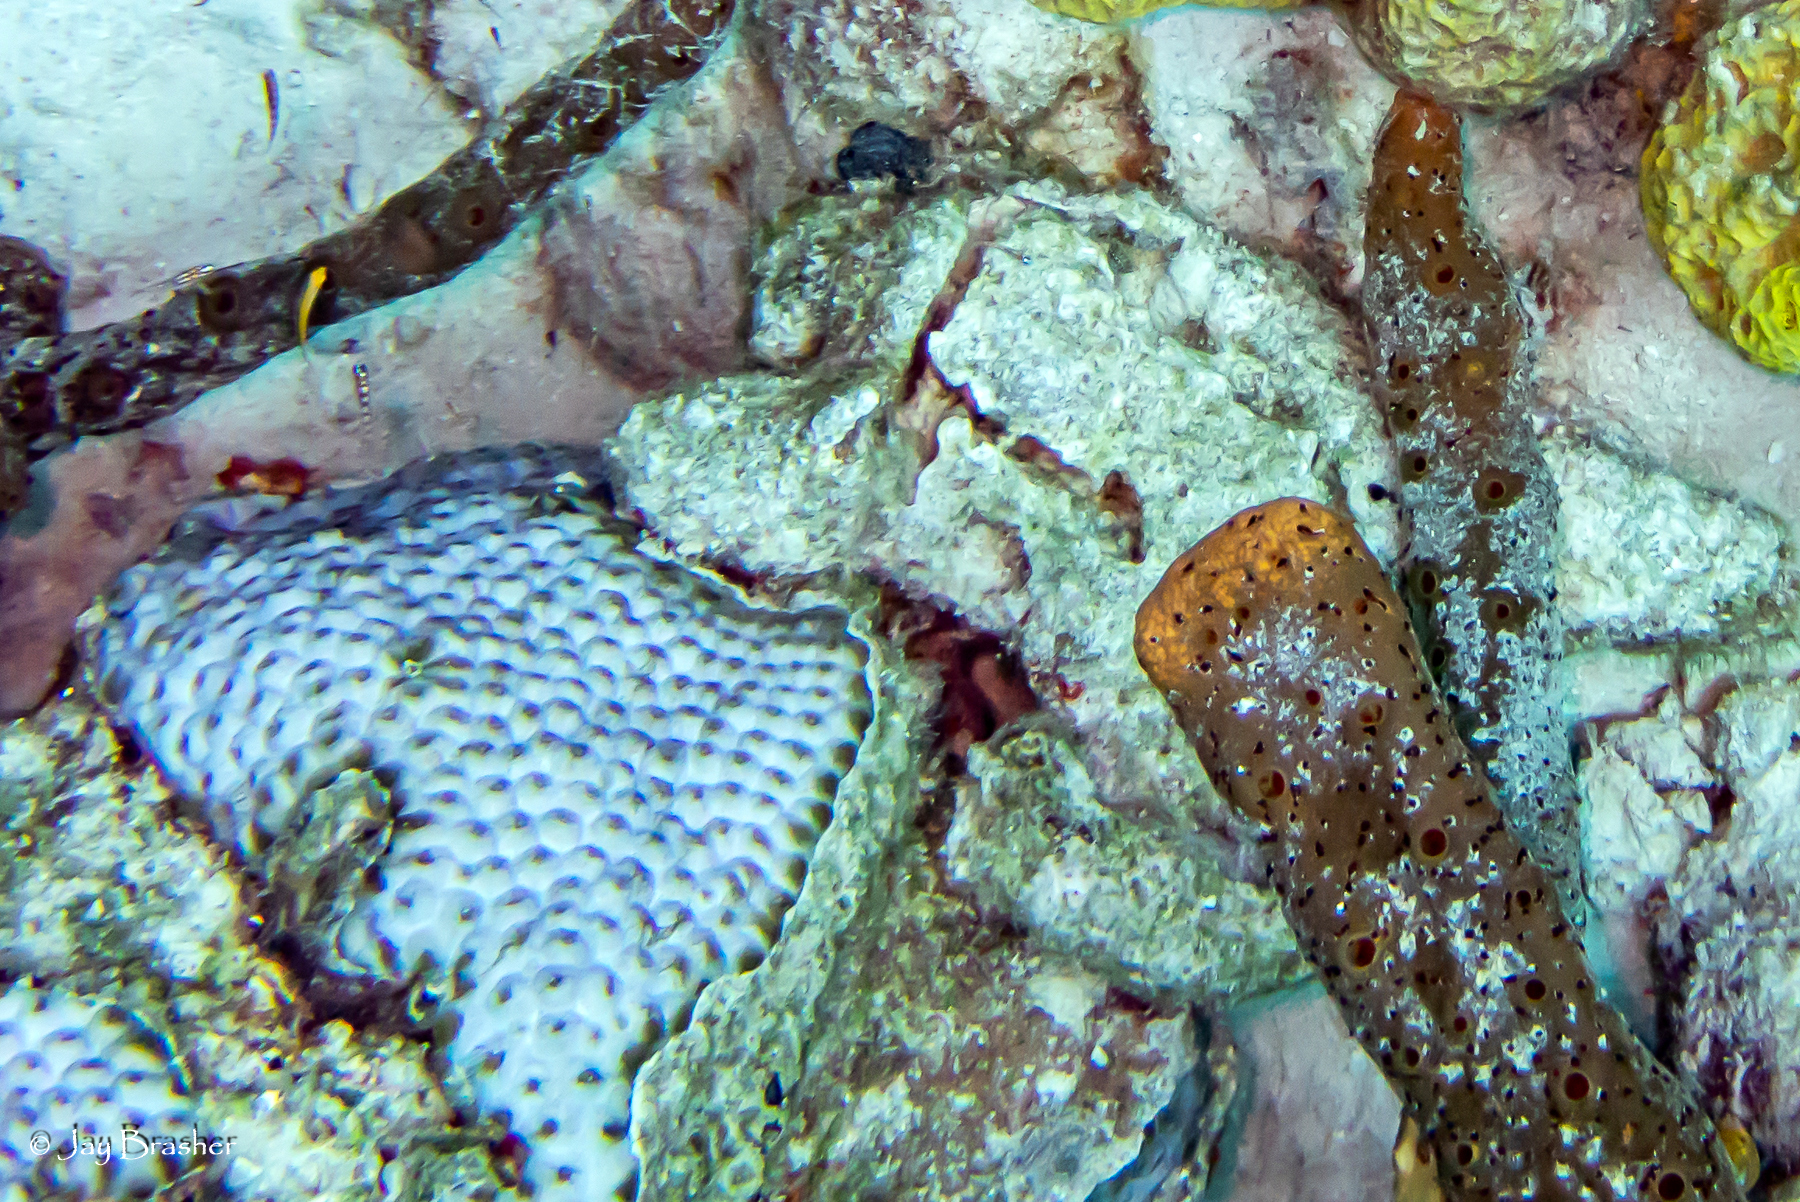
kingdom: Animalia
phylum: Porifera
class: Demospongiae
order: Agelasida
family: Agelasidae
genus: Agelas
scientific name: Agelas conifera
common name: Brown tube sponge
